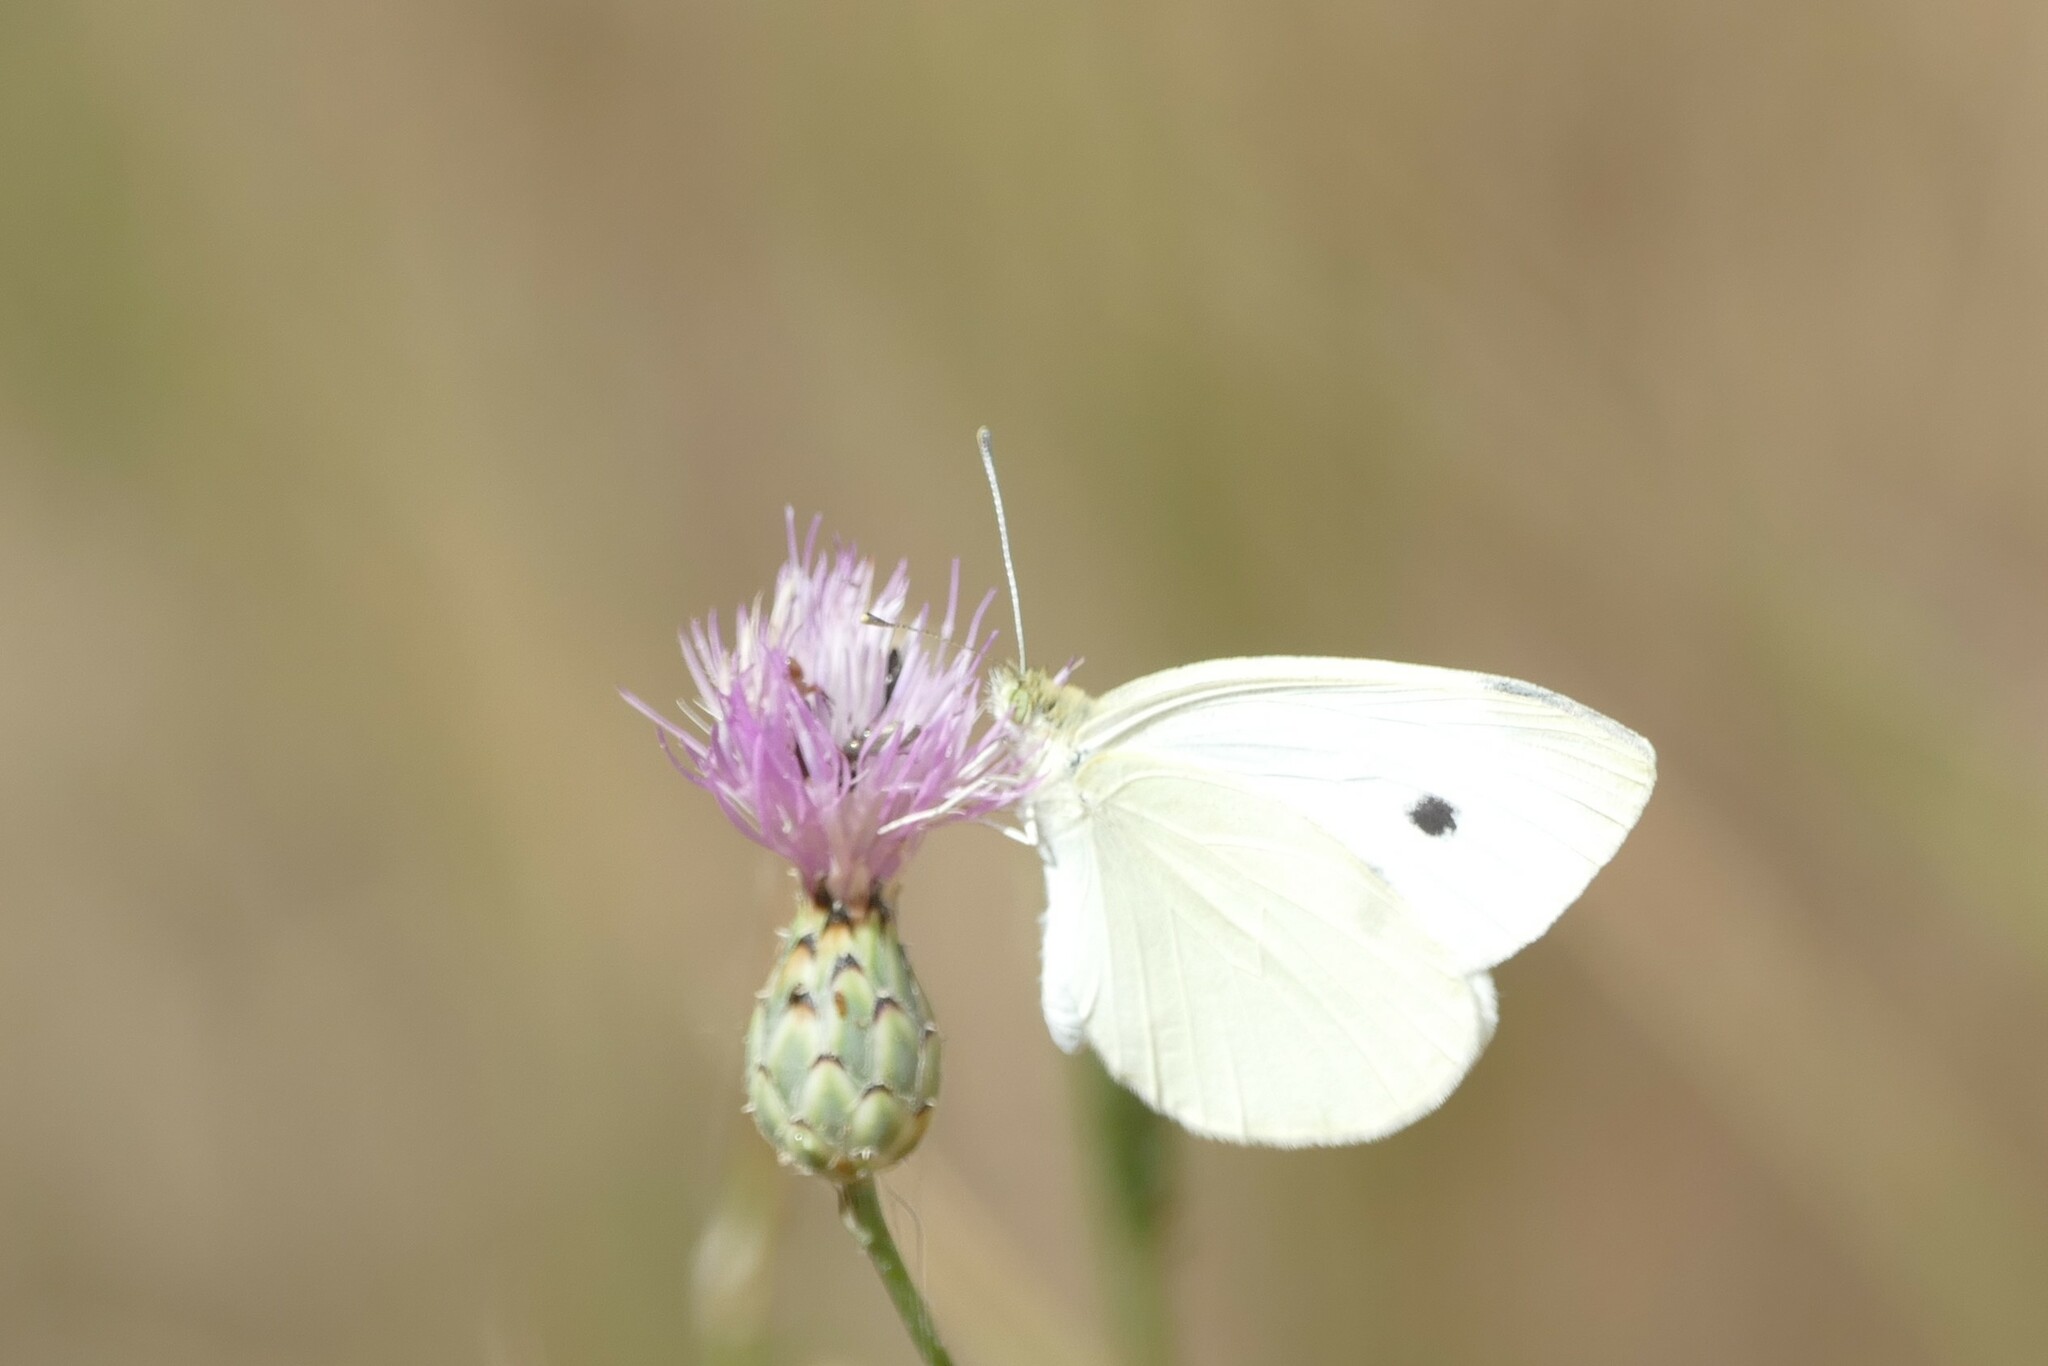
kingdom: Animalia
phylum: Arthropoda
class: Insecta
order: Lepidoptera
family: Pieridae
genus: Pieris
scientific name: Pieris rapae
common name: Small white
